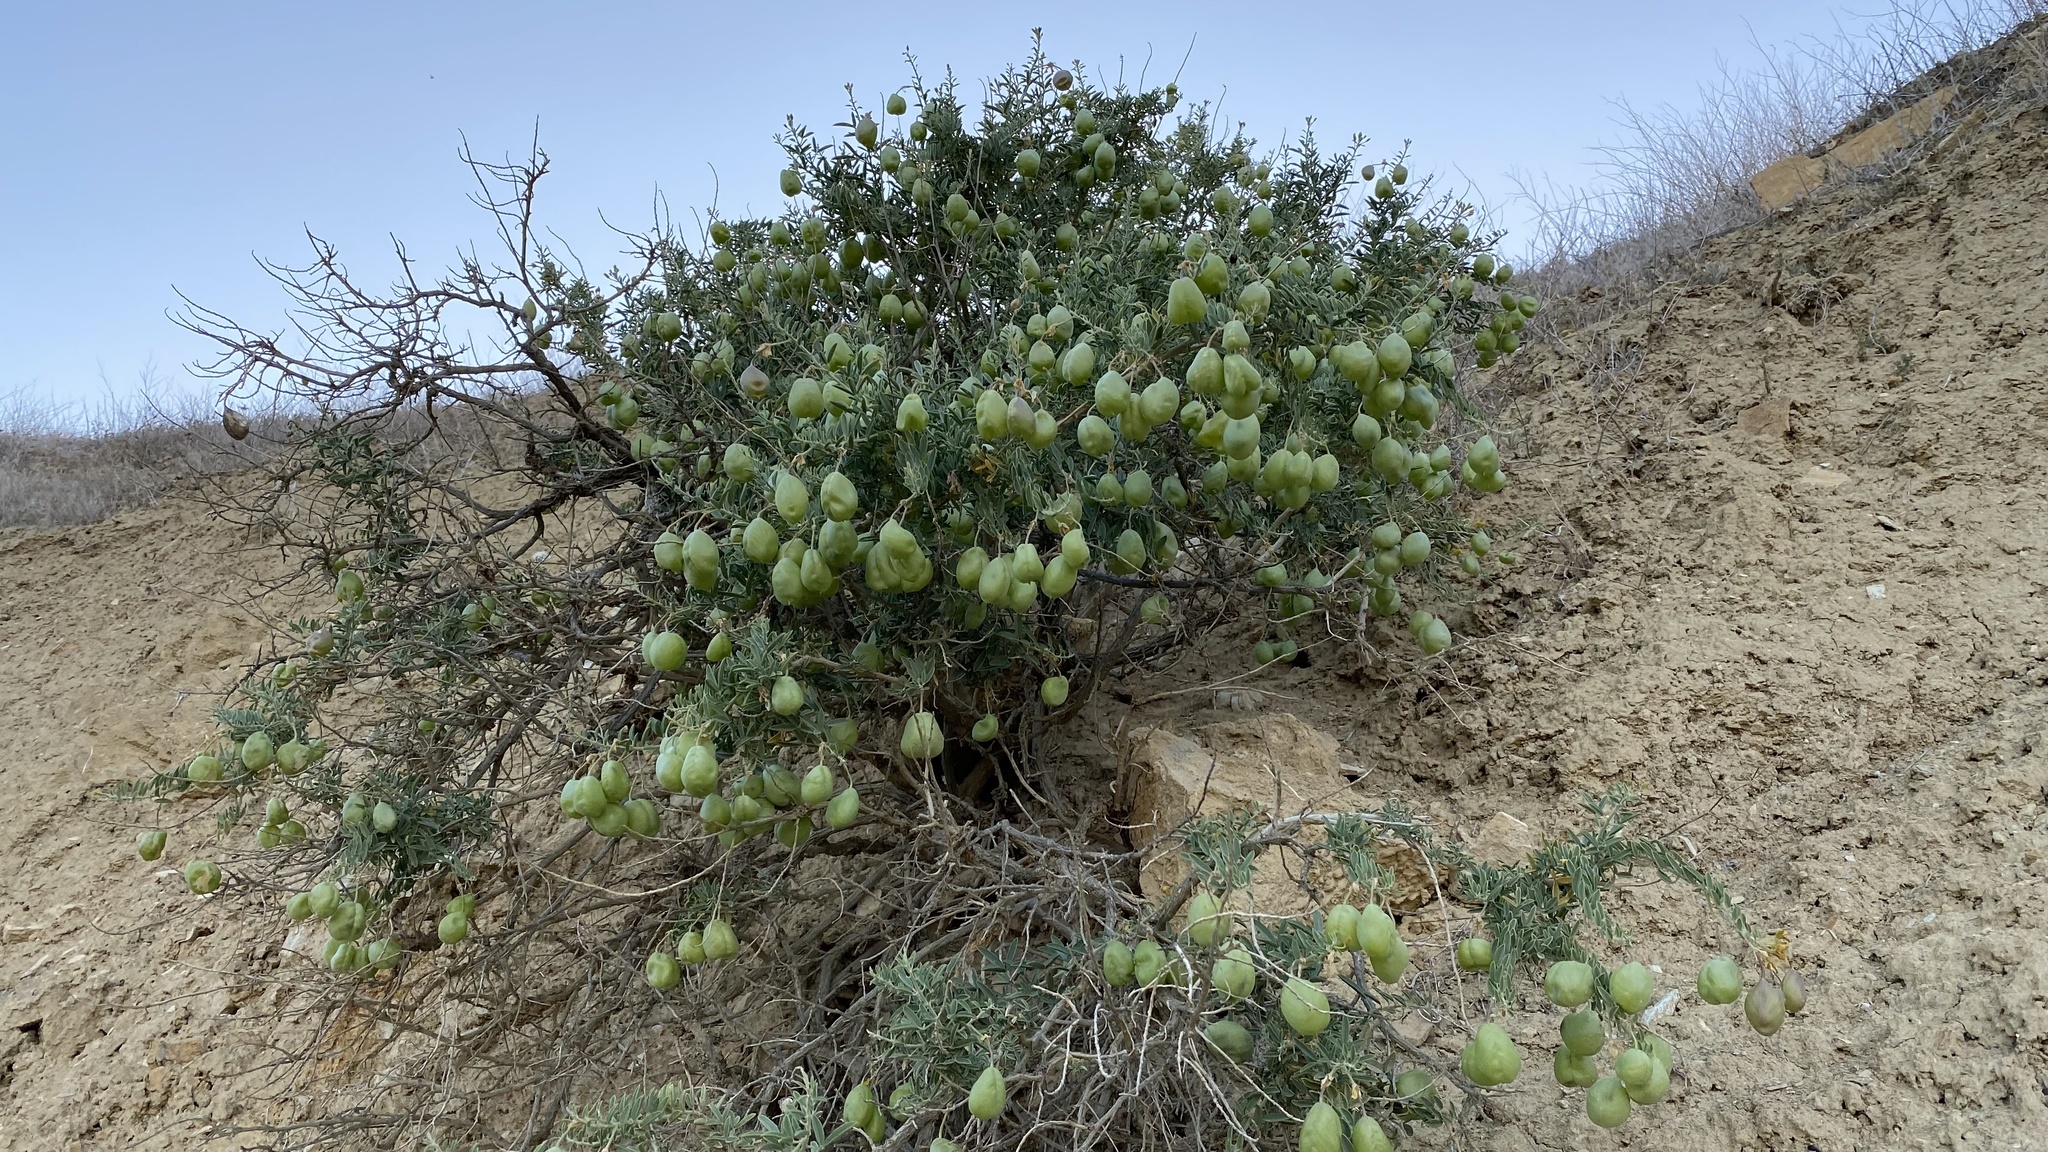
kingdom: Plantae
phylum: Tracheophyta
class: Magnoliopsida
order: Brassicales
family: Cleomaceae
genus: Cleomella
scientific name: Cleomella arborea
